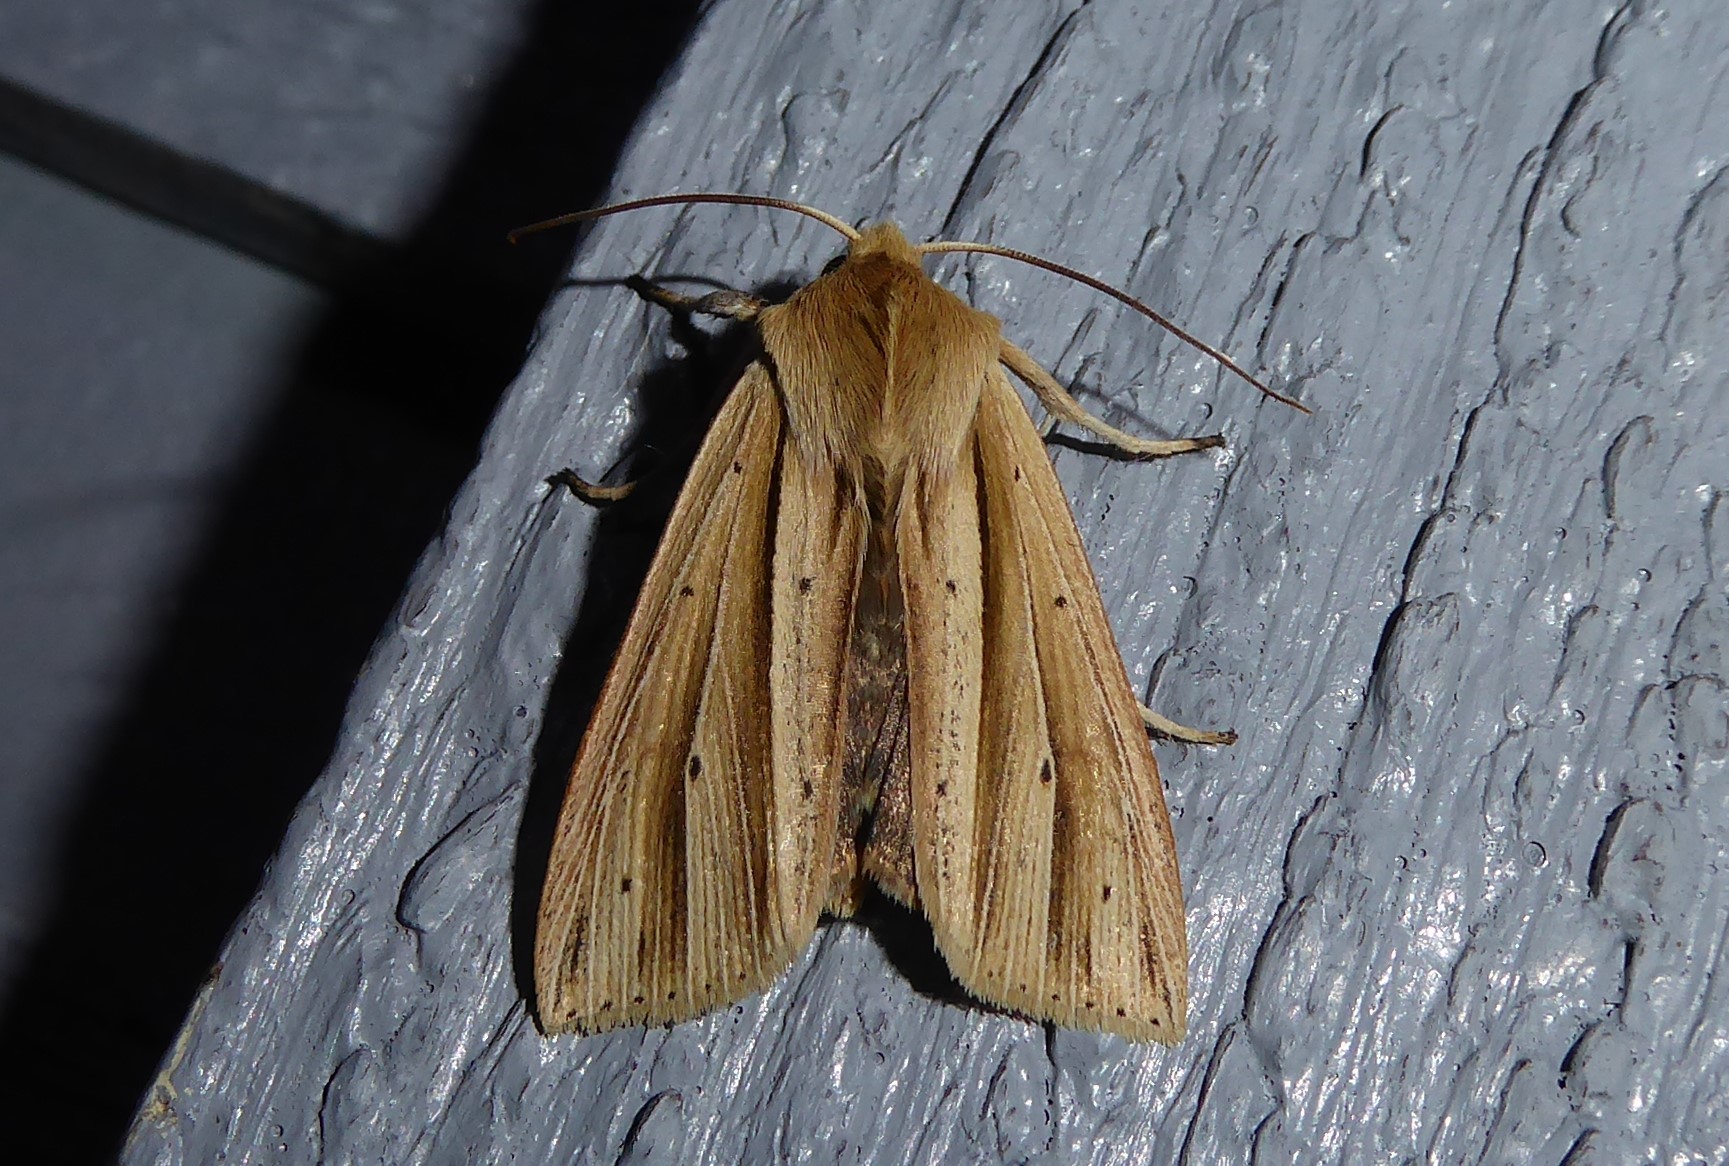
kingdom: Animalia
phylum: Arthropoda
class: Insecta
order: Lepidoptera
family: Noctuidae
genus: Ichneutica
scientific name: Ichneutica sulcana
